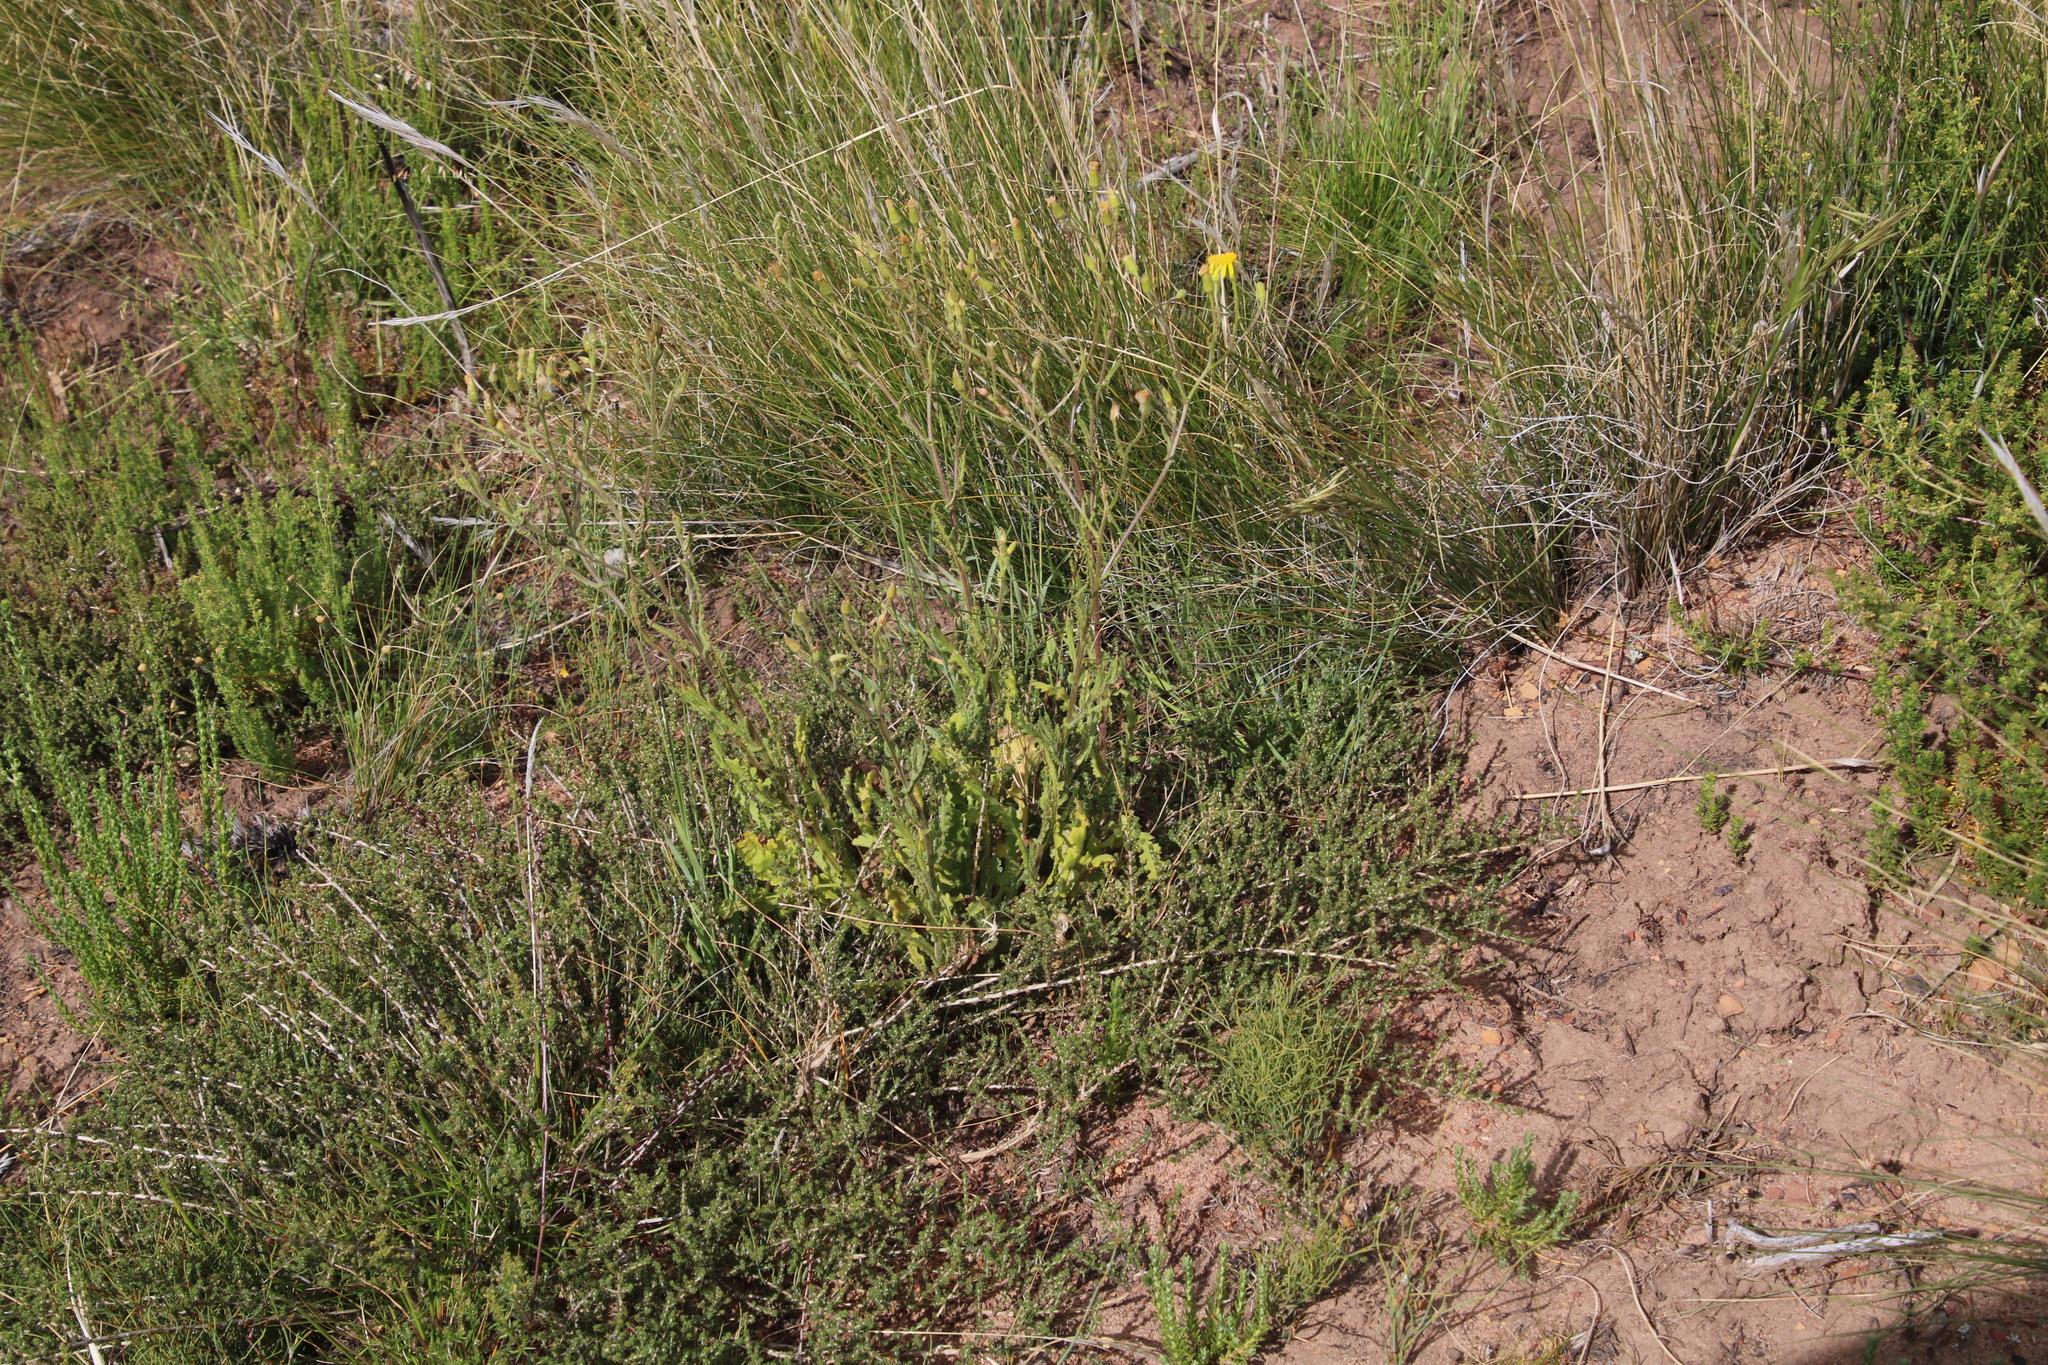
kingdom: Plantae
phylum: Tracheophyta
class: Magnoliopsida
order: Asterales
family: Asteraceae
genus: Senecio
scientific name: Senecio hastatus
